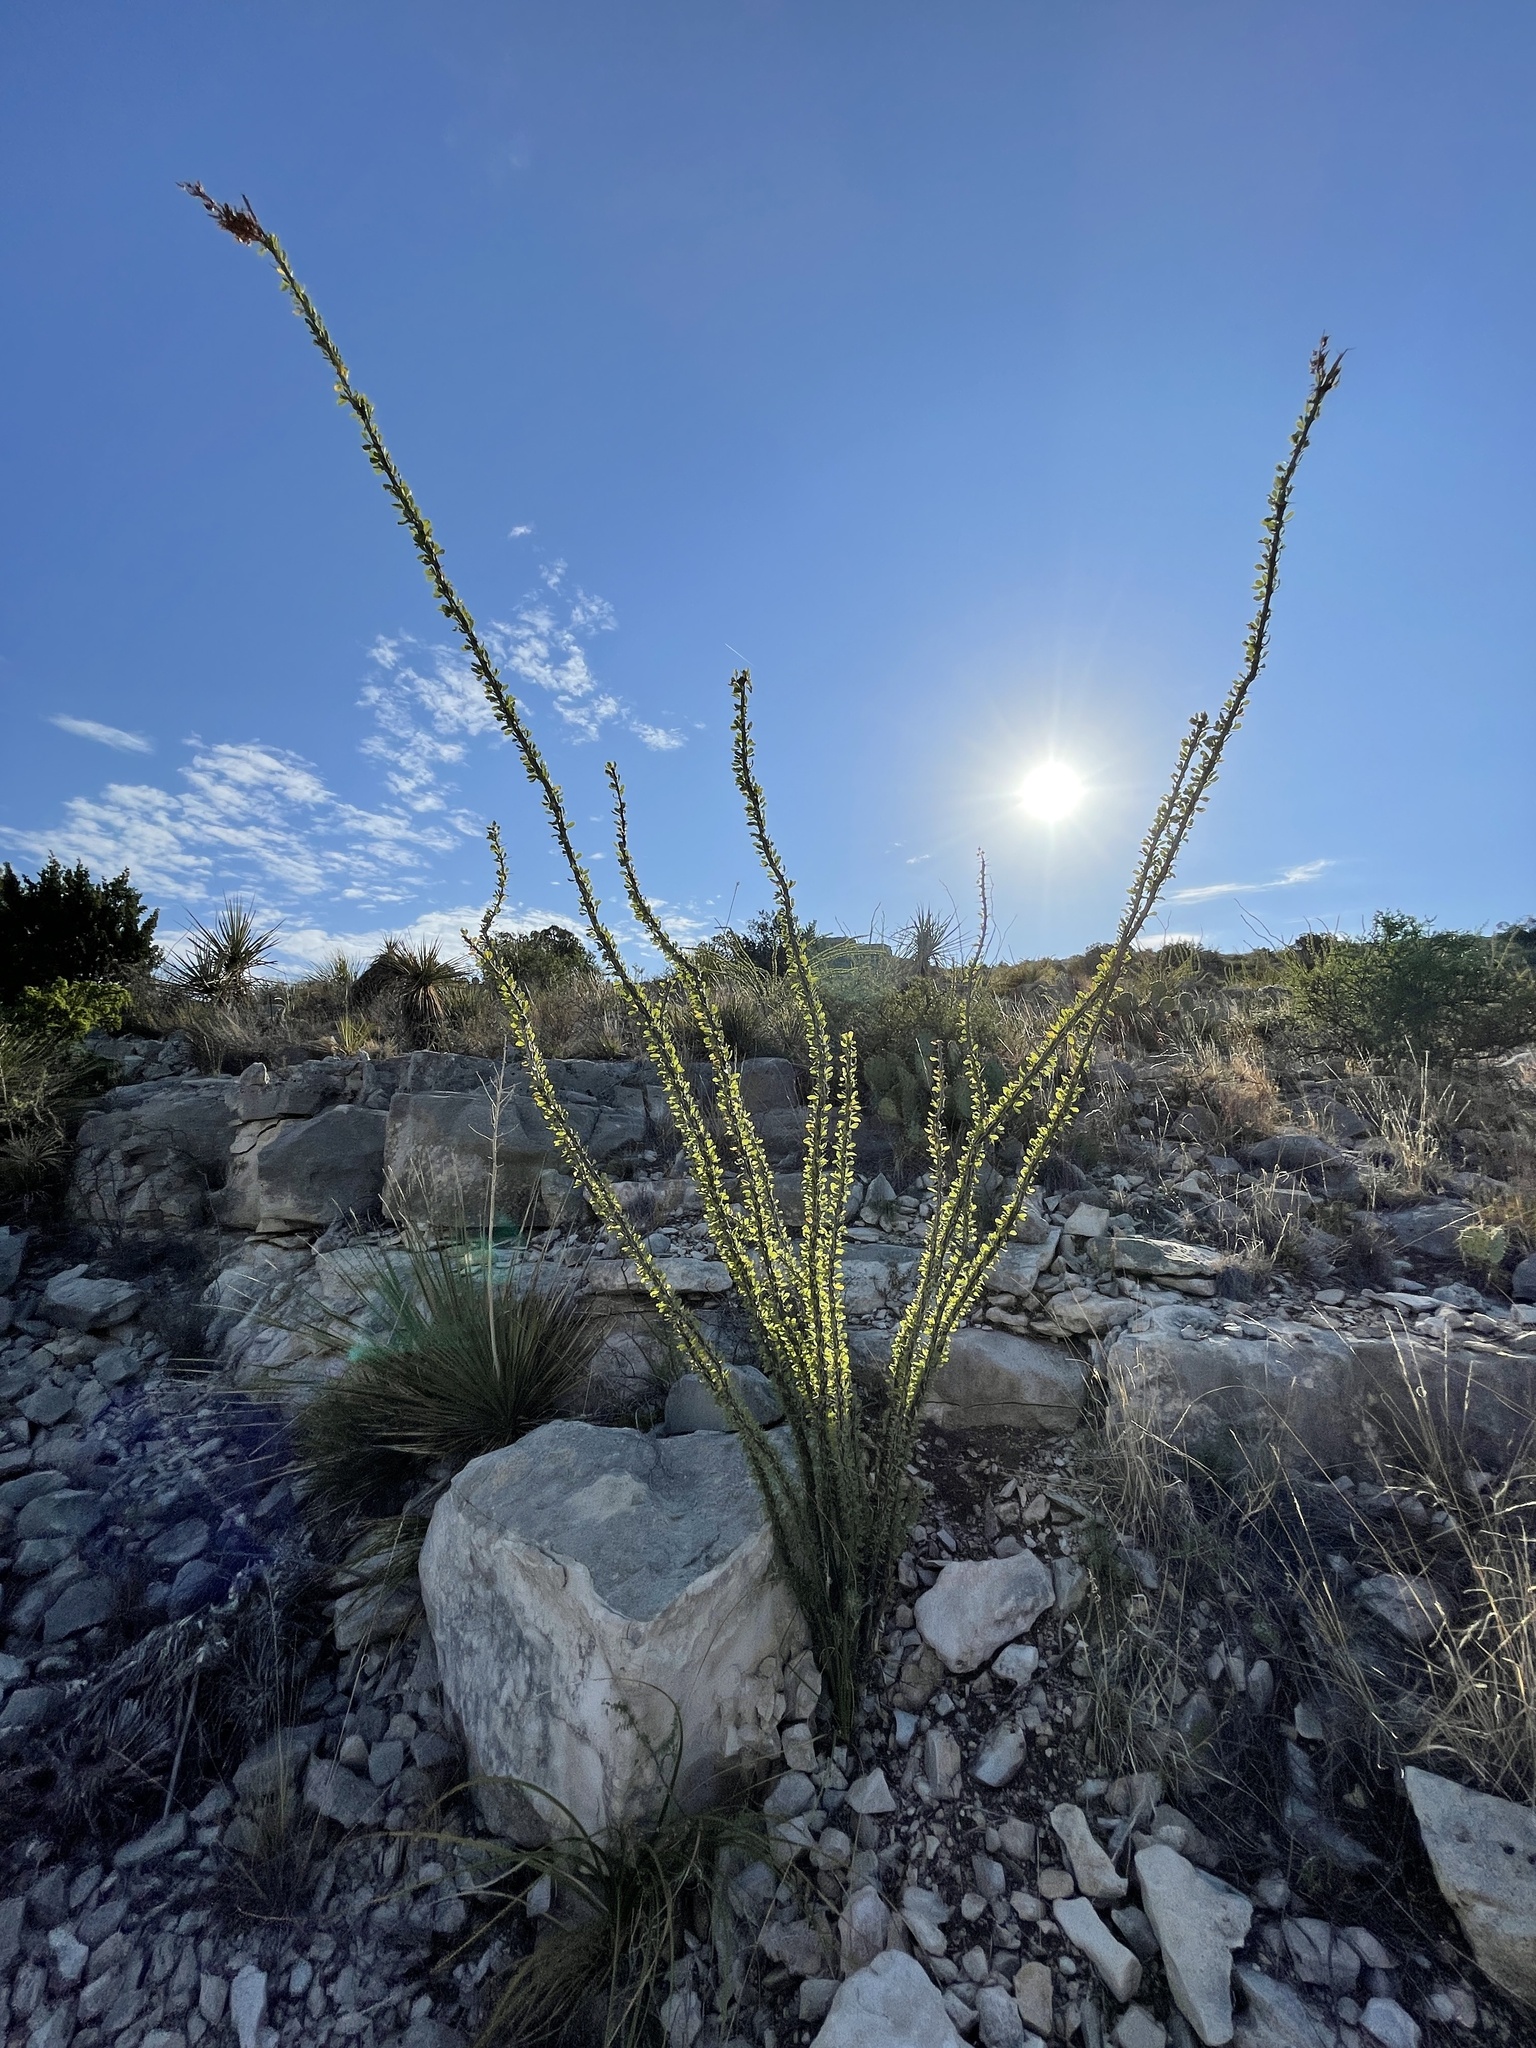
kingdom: Plantae
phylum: Tracheophyta
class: Magnoliopsida
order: Ericales
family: Fouquieriaceae
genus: Fouquieria
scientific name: Fouquieria splendens
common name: Vine-cactus
